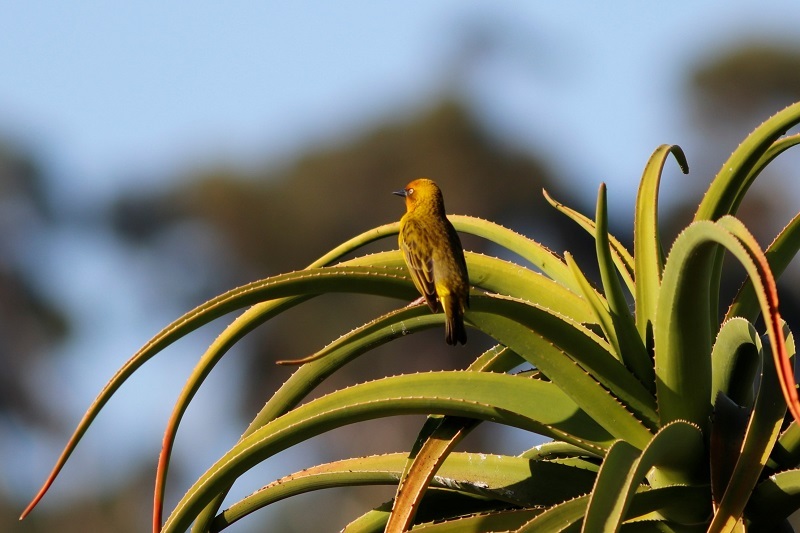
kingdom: Animalia
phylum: Chordata
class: Aves
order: Passeriformes
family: Ploceidae
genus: Ploceus
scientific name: Ploceus capensis
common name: Cape weaver
